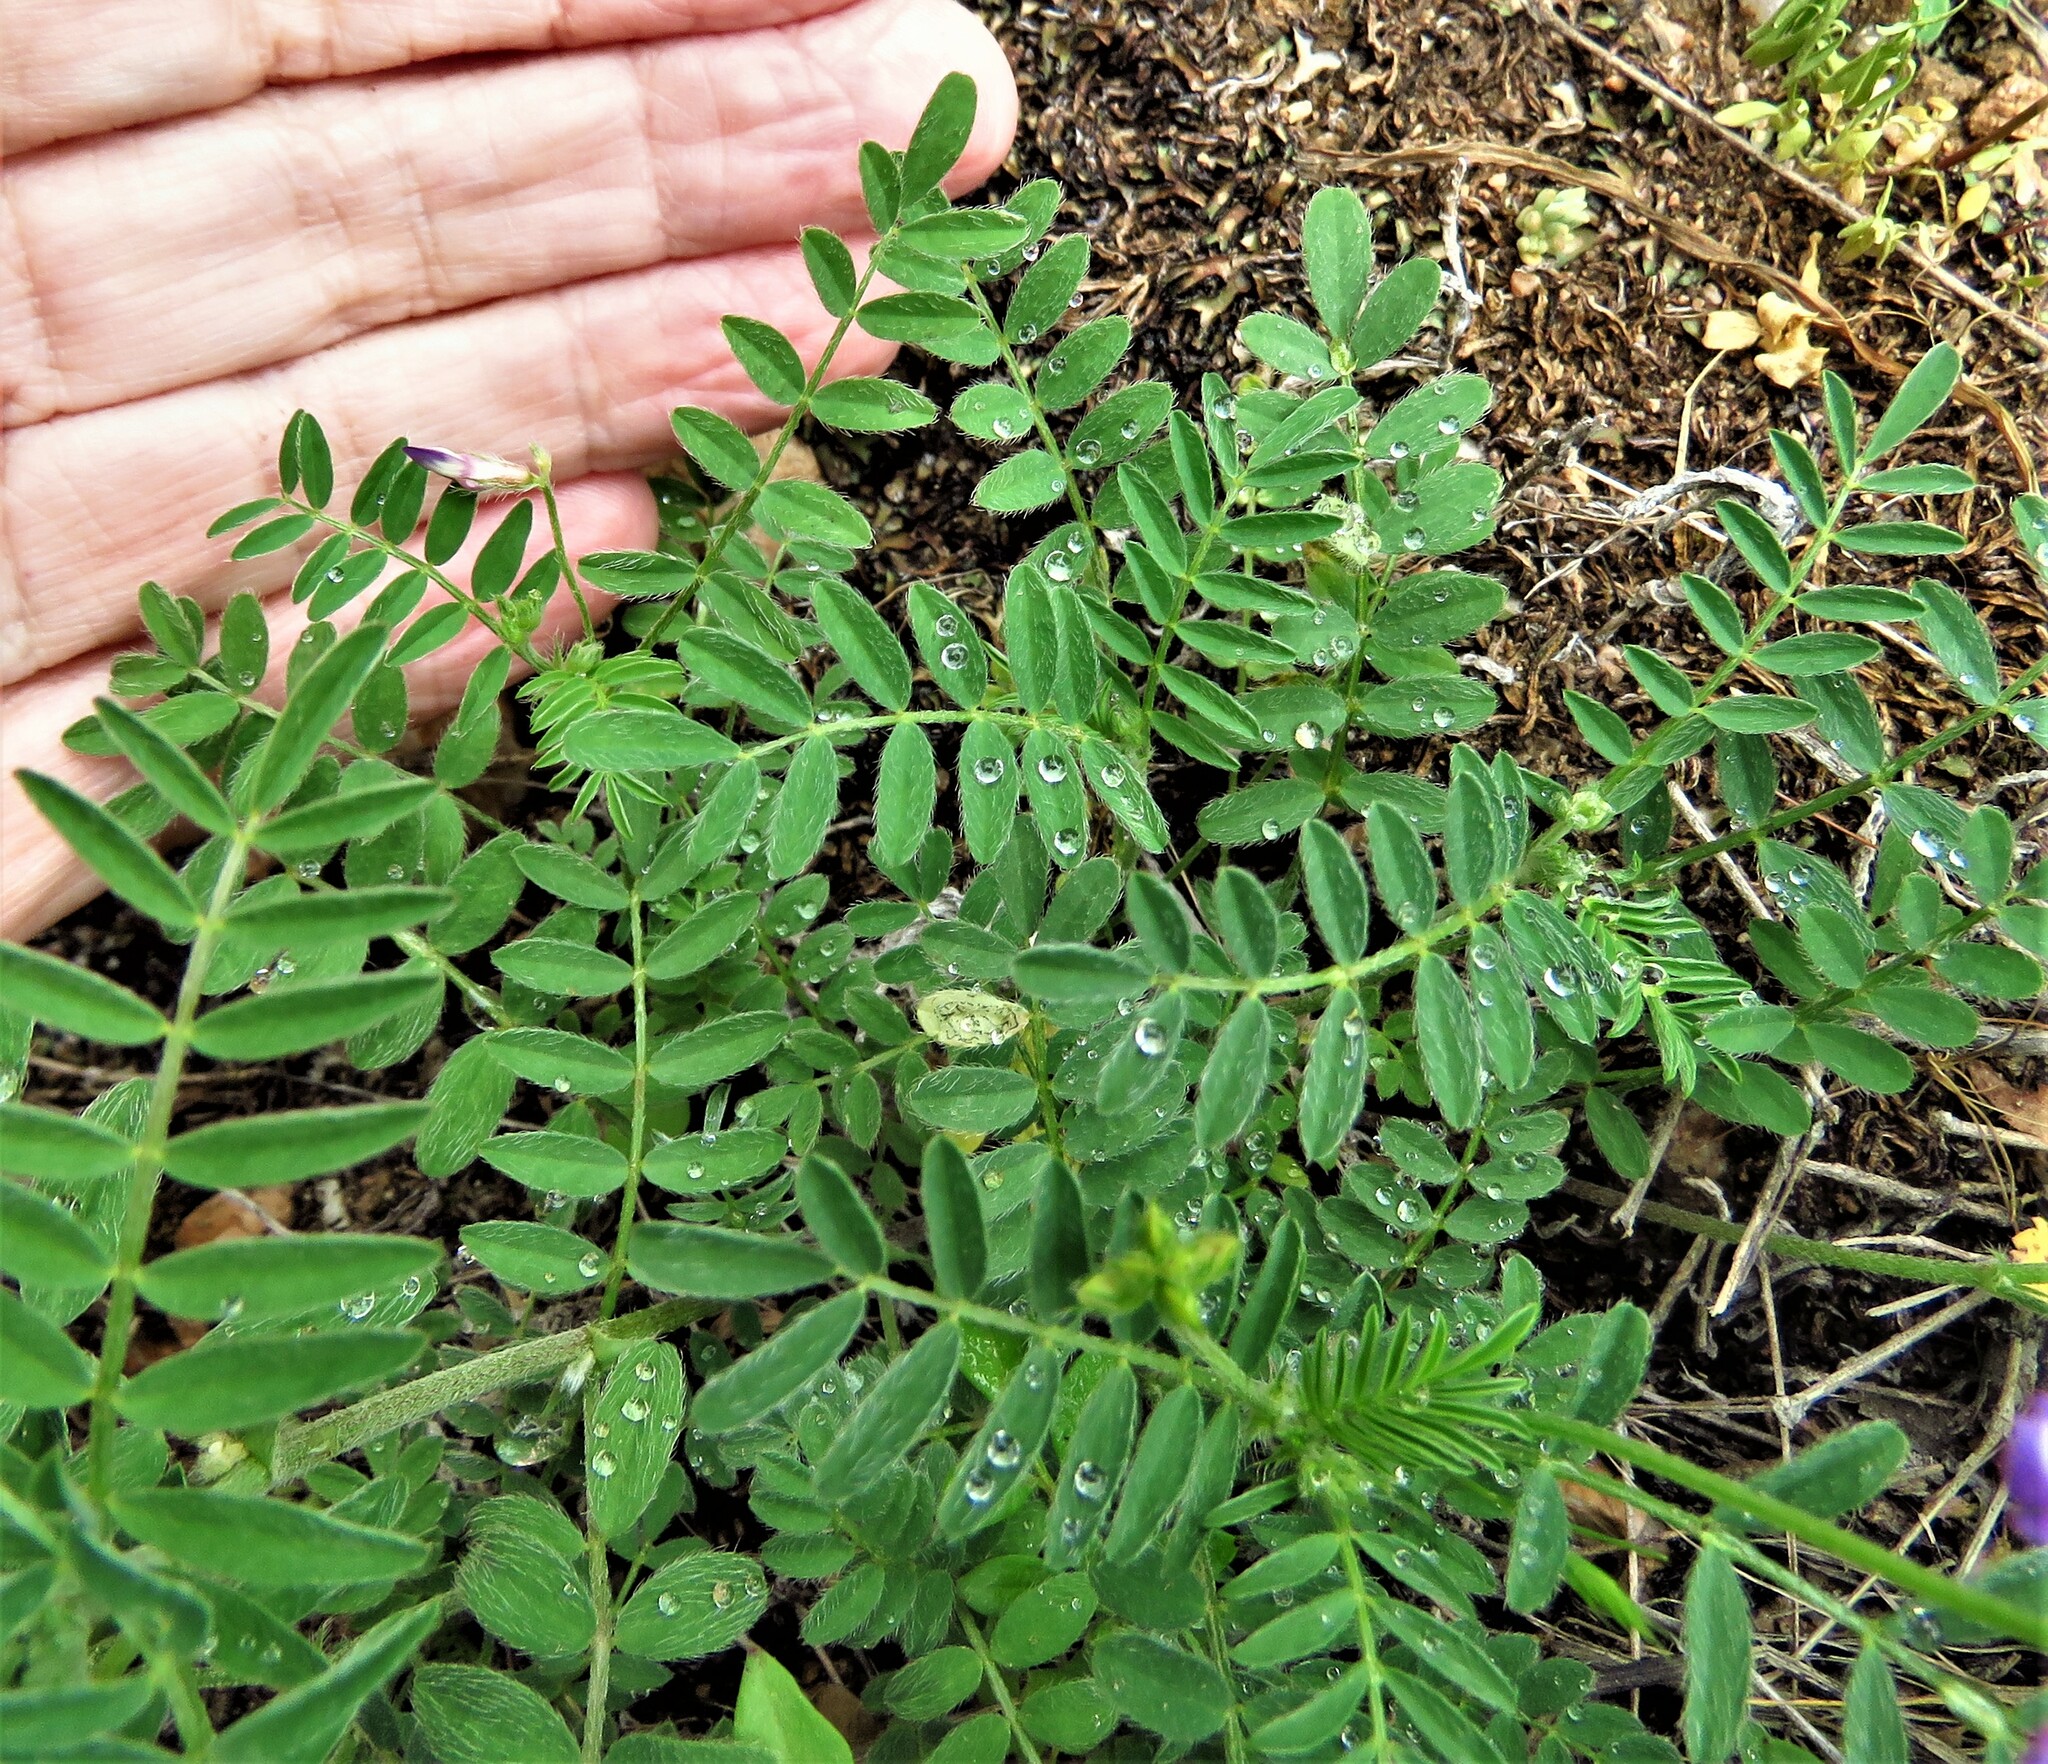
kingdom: Plantae
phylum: Tracheophyta
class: Magnoliopsida
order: Fabales
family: Fabaceae
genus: Astragalus
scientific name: Astragalus nuttallianus
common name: Smallflowered milkvetch
